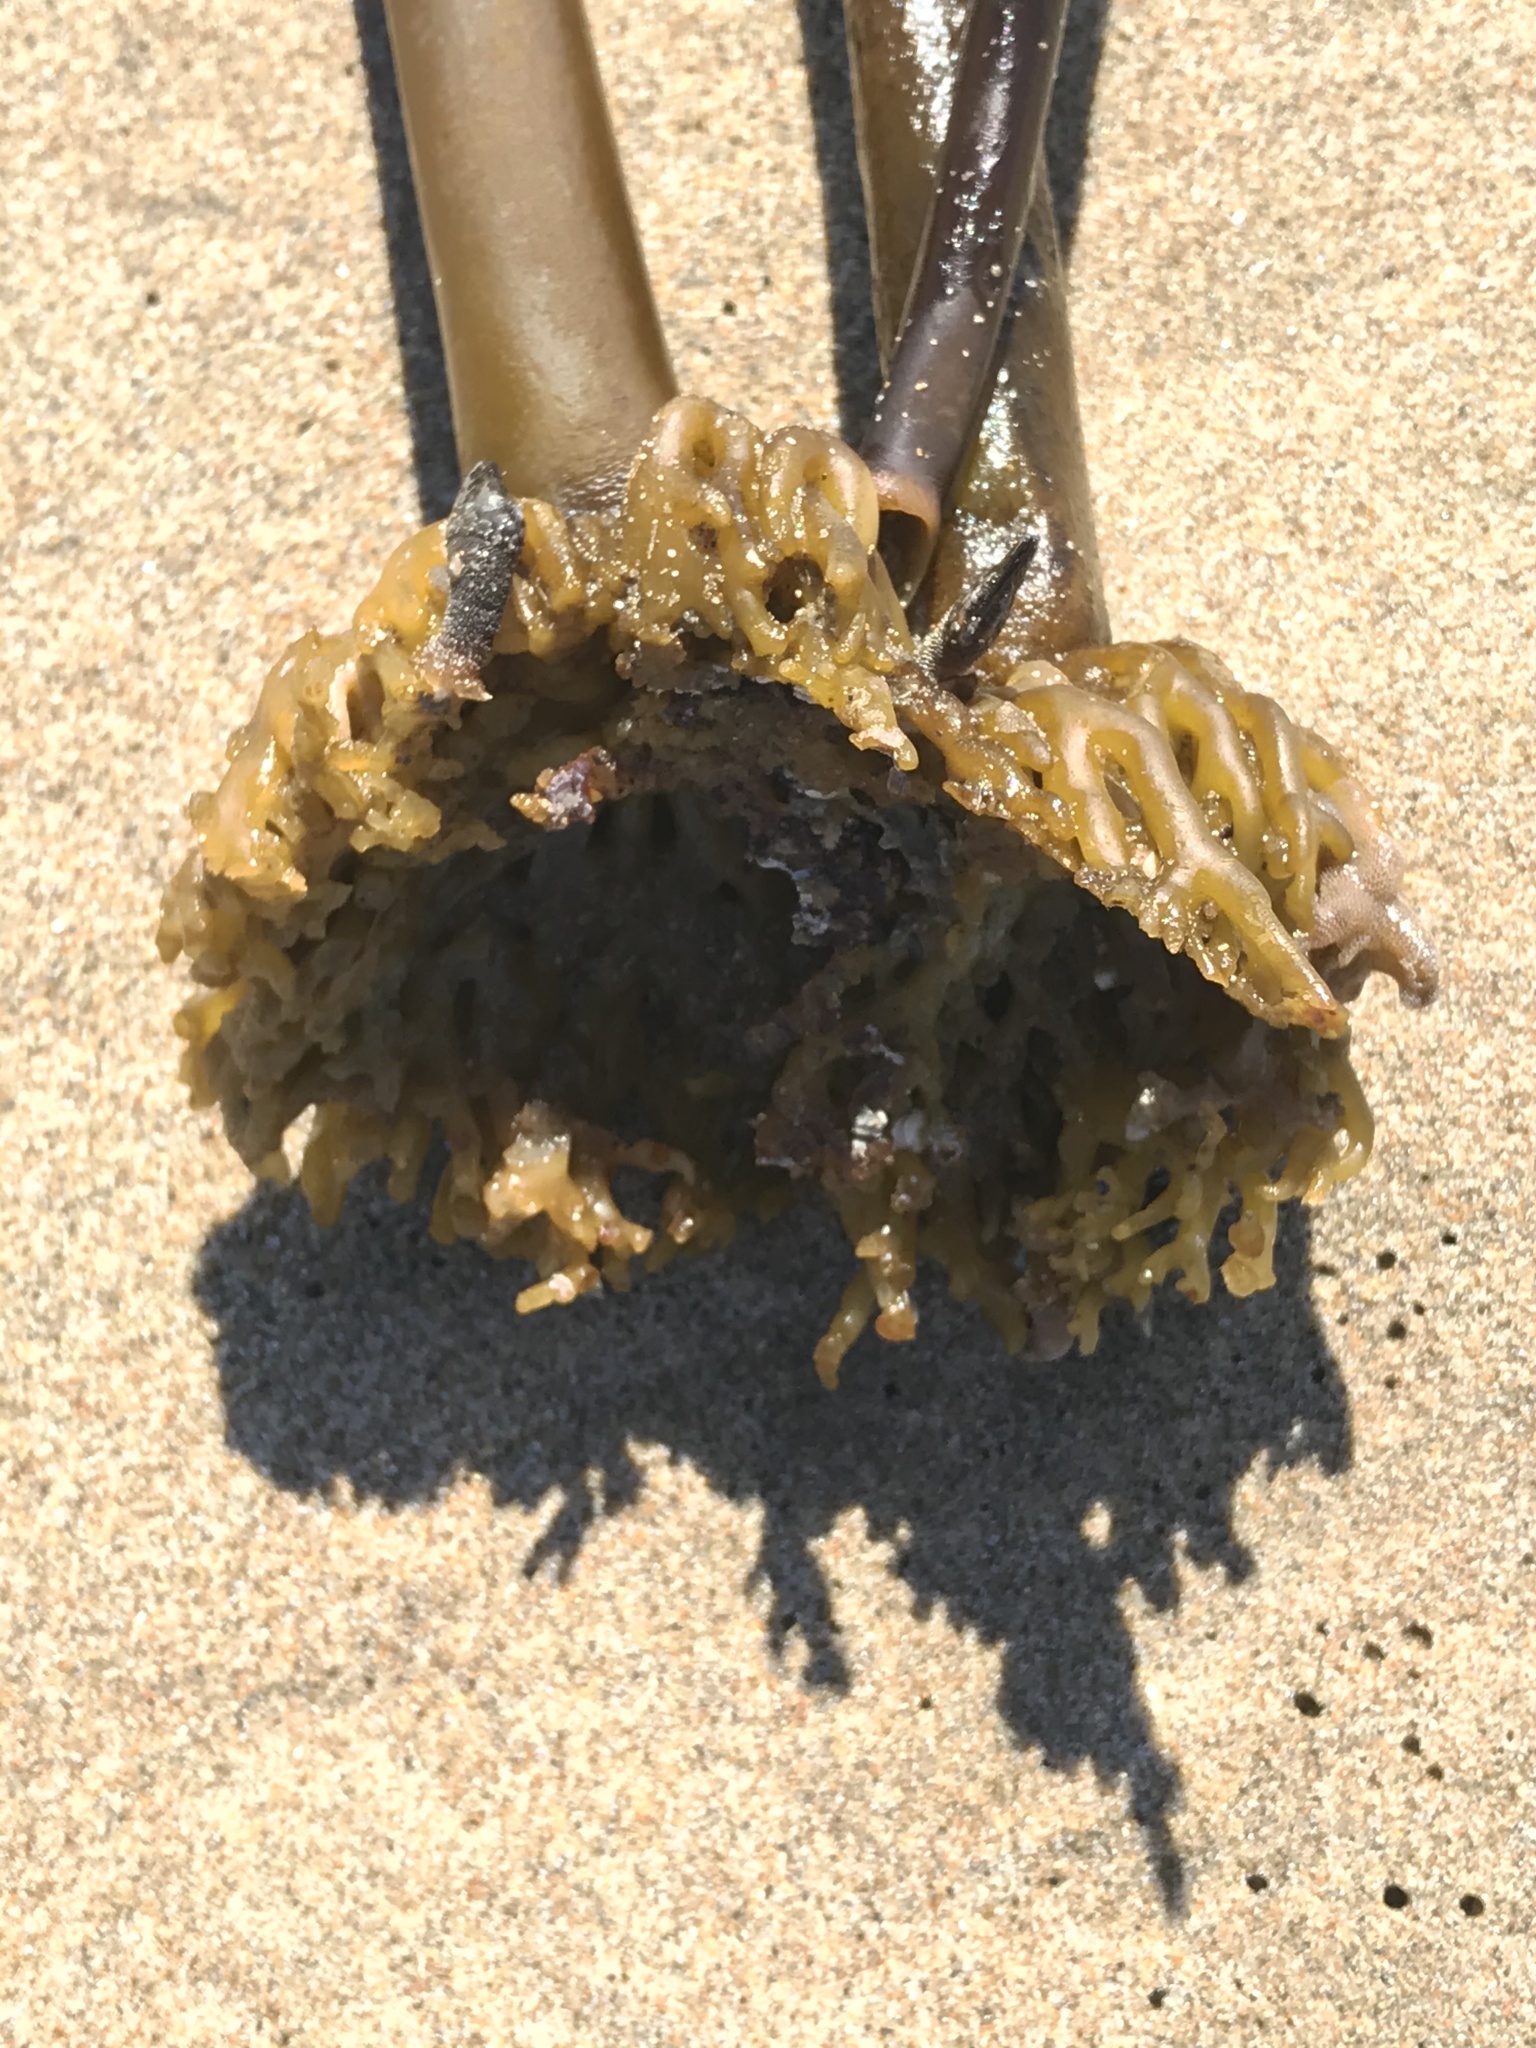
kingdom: Chromista
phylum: Ochrophyta
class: Phaeophyceae
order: Laminariales
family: Laminariaceae
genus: Postelsia
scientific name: Postelsia palmiformis
